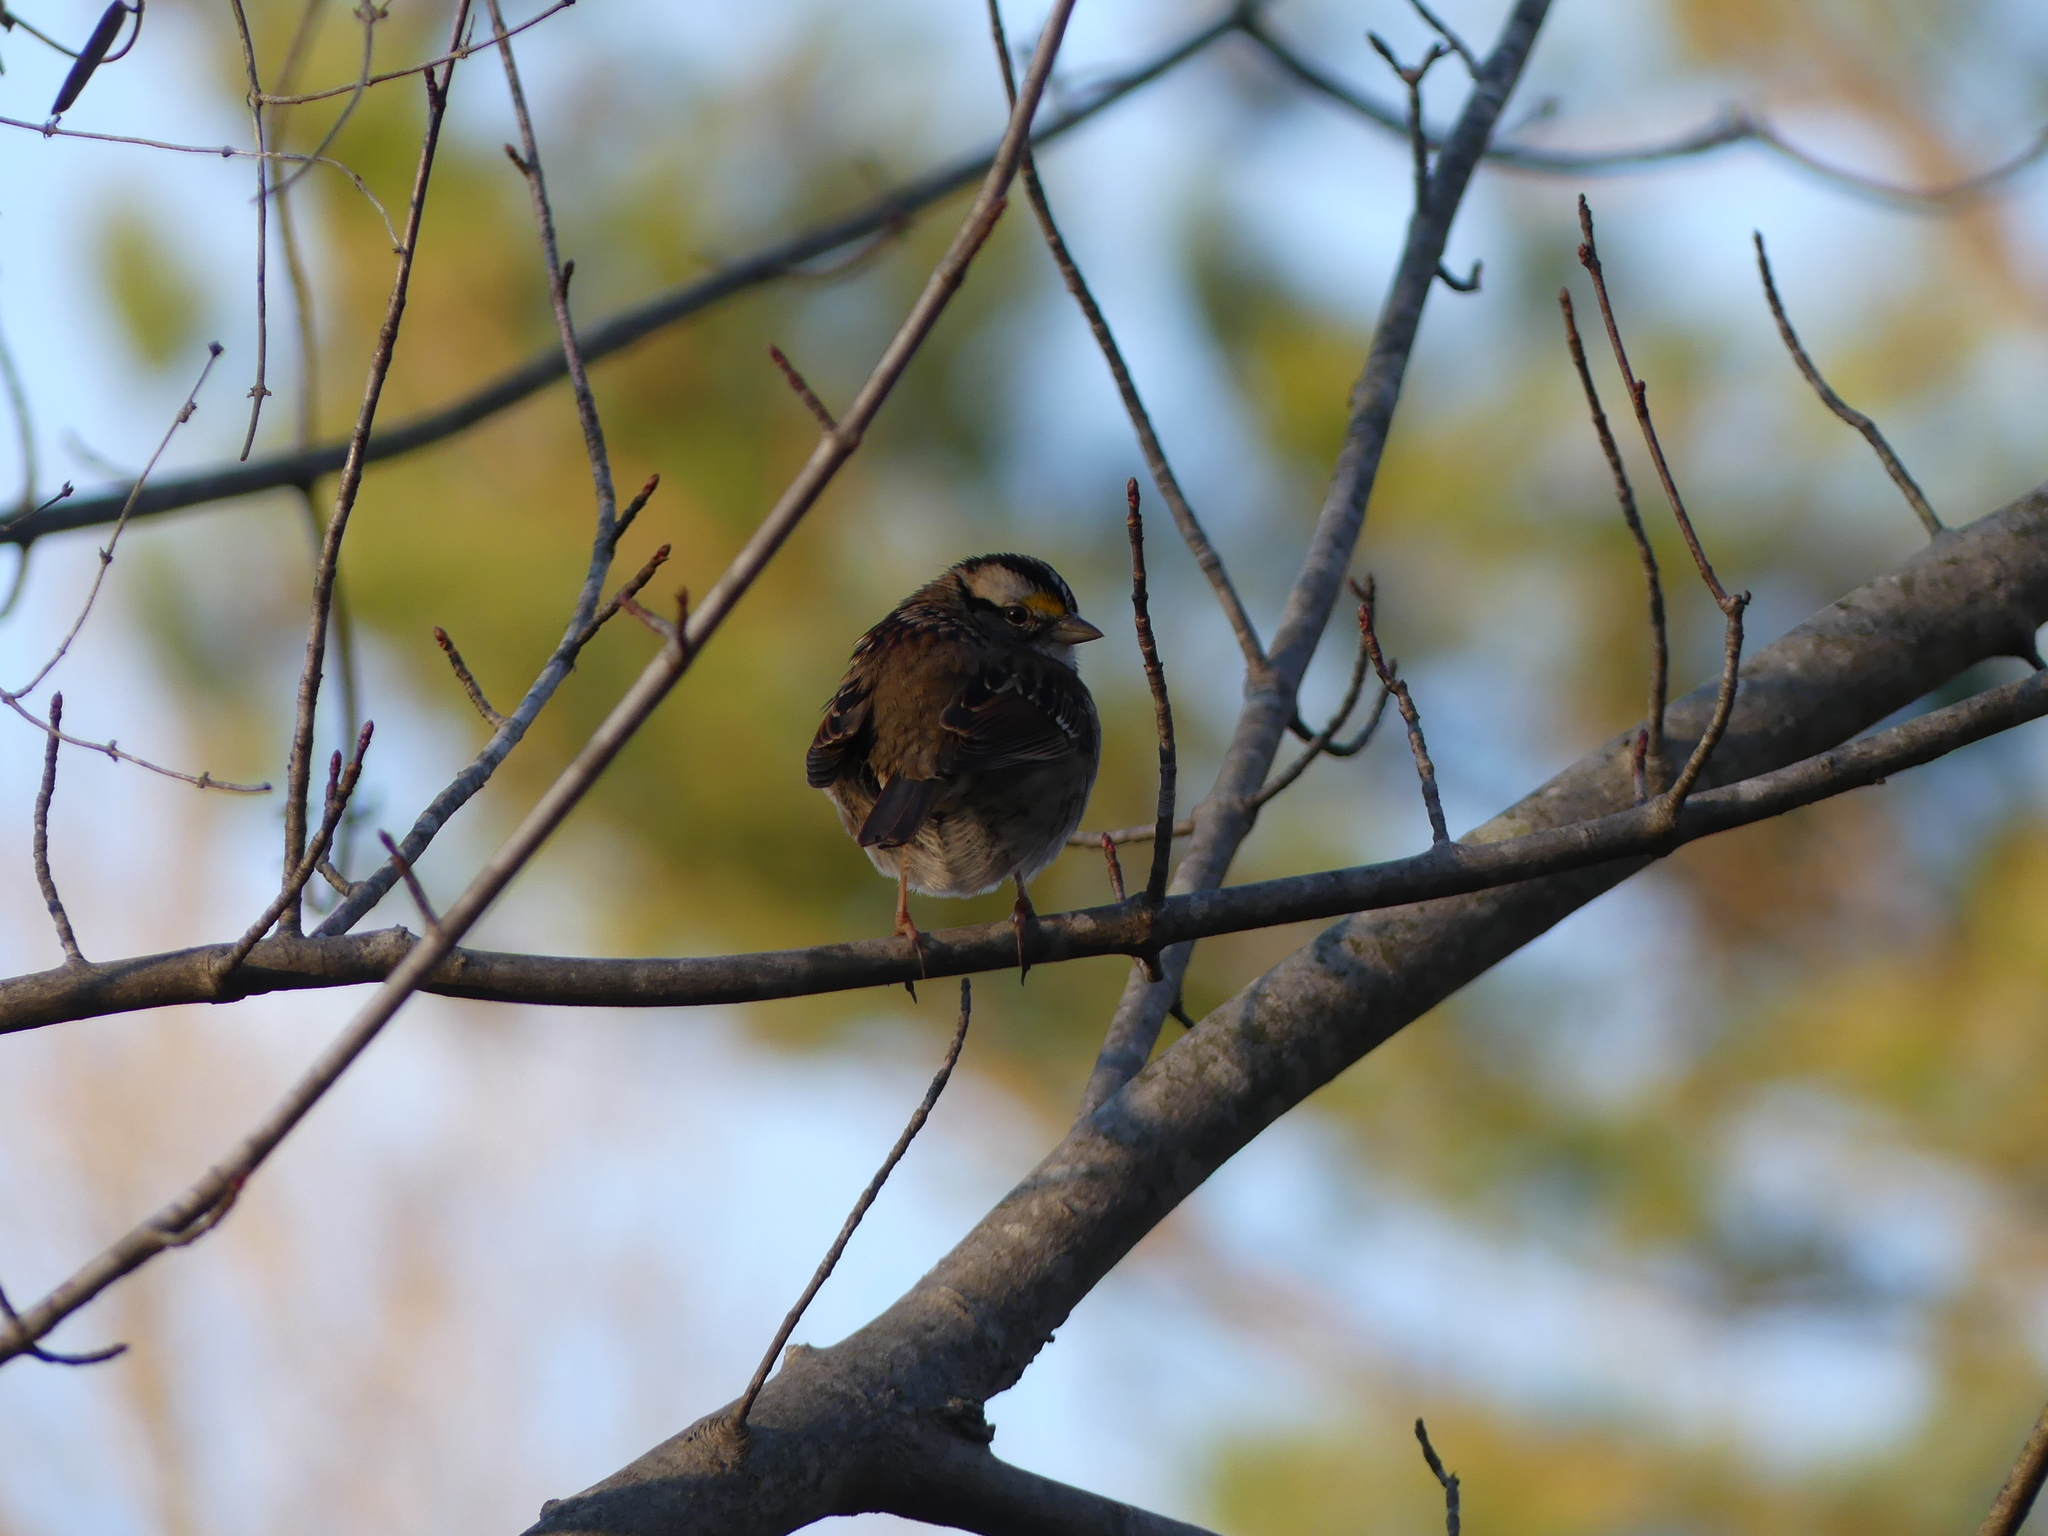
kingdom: Animalia
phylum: Chordata
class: Aves
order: Passeriformes
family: Passerellidae
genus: Zonotrichia
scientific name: Zonotrichia albicollis
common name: White-throated sparrow
